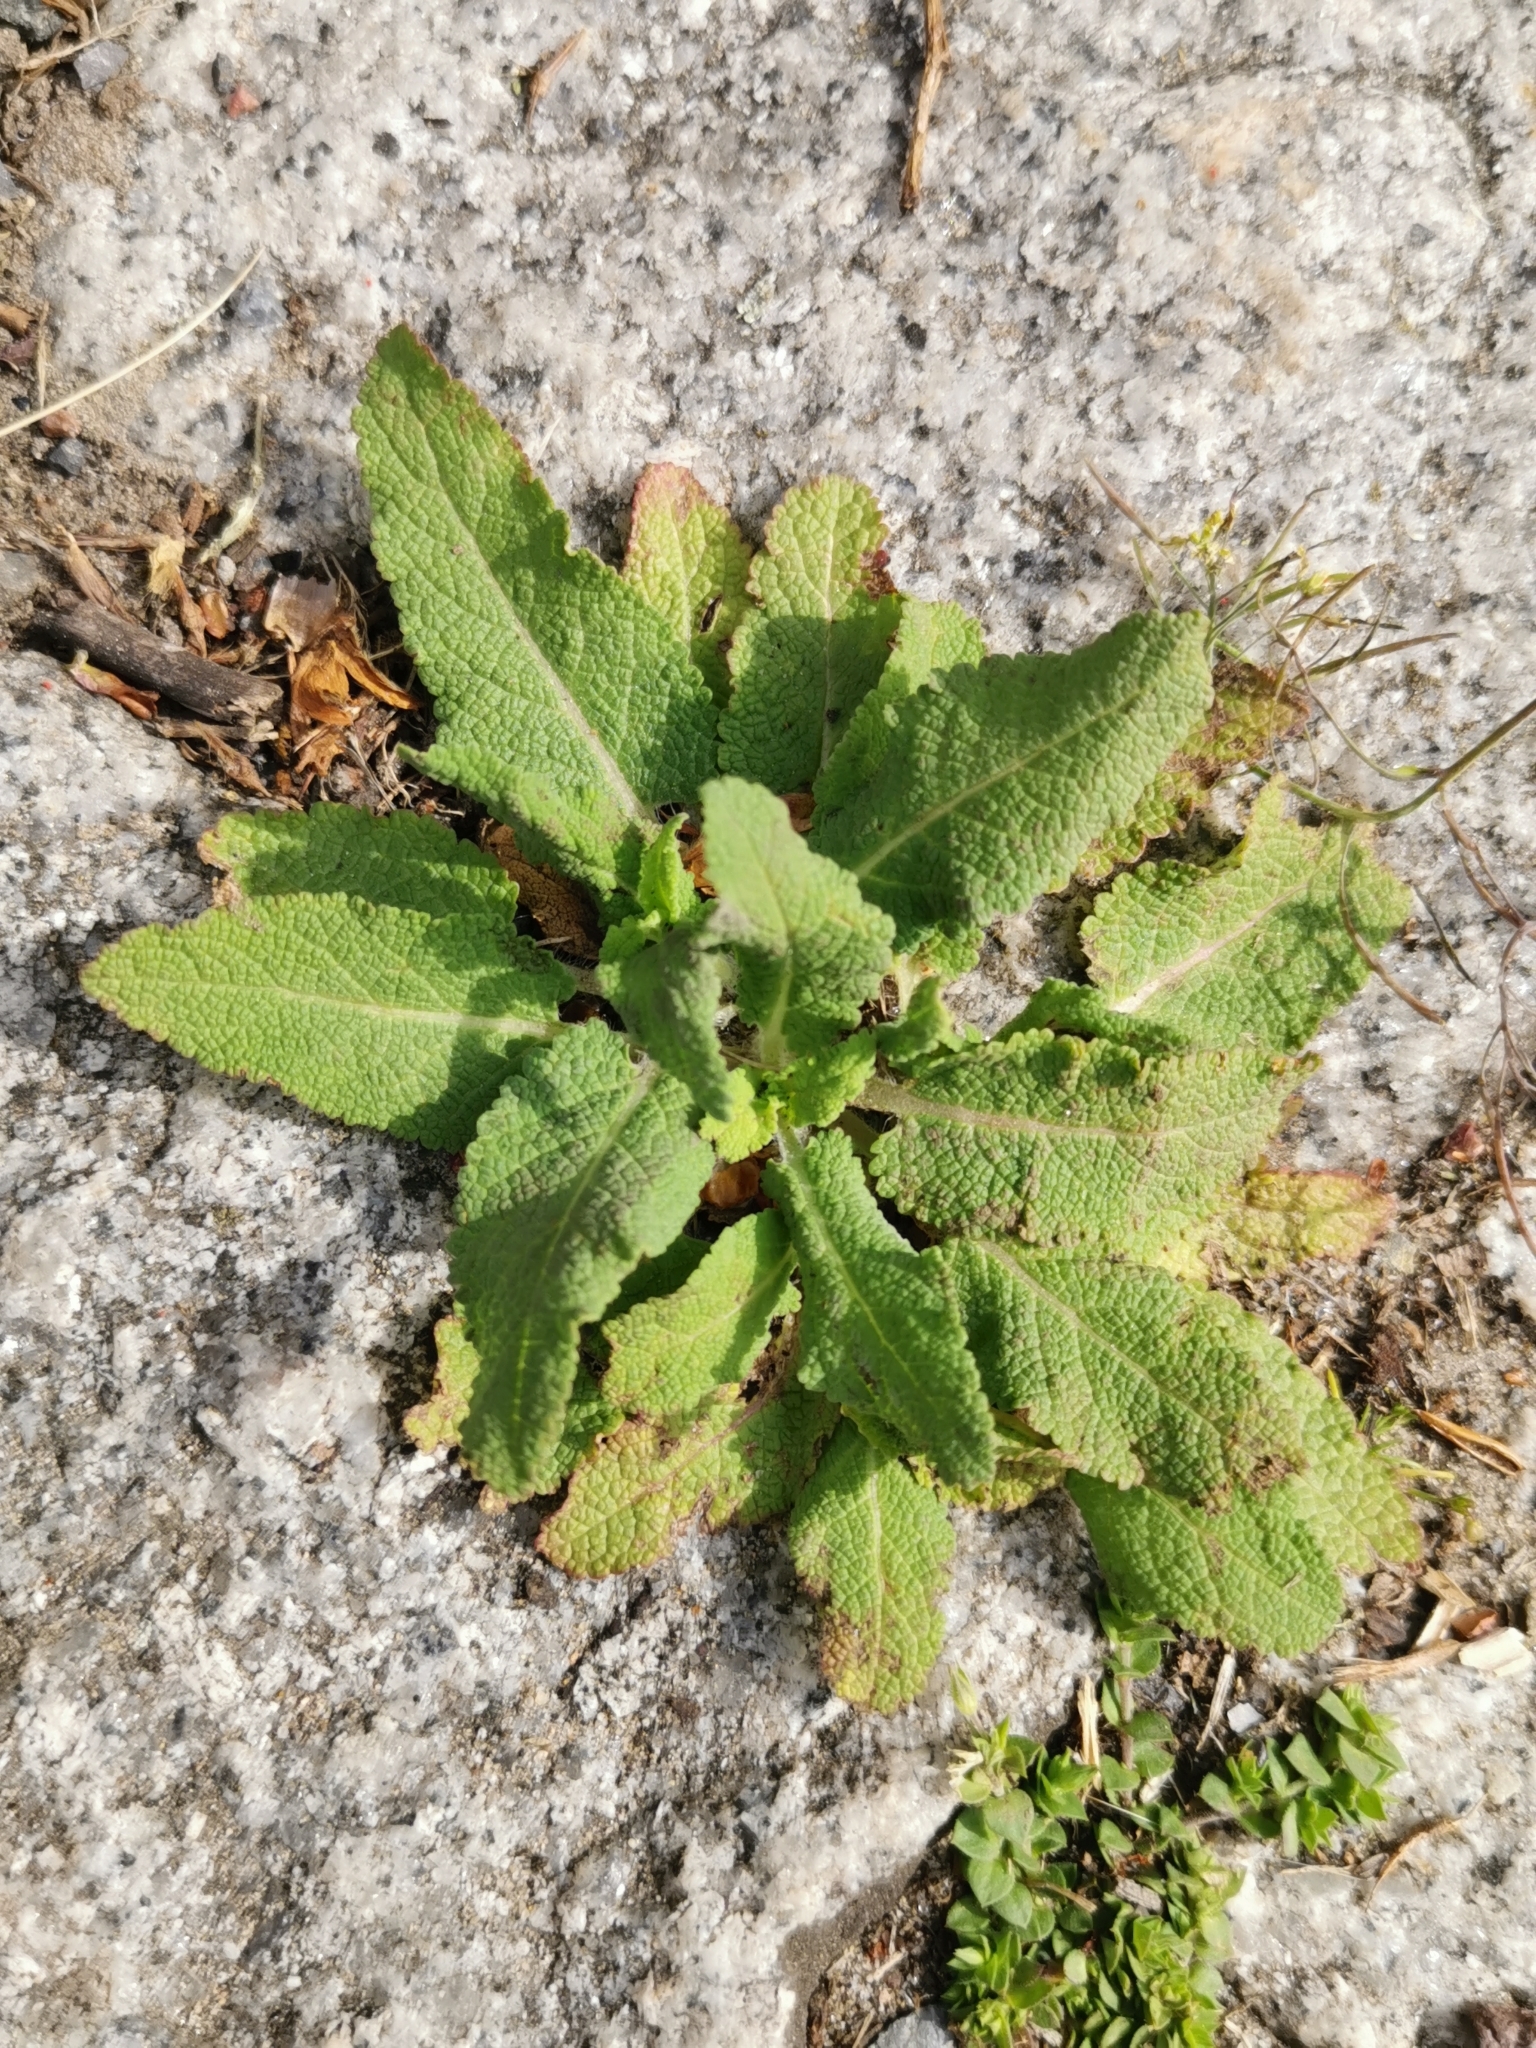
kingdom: Plantae
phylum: Tracheophyta
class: Magnoliopsida
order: Lamiales
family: Lamiaceae
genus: Salvia
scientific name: Salvia pratensis
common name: Meadow sage
